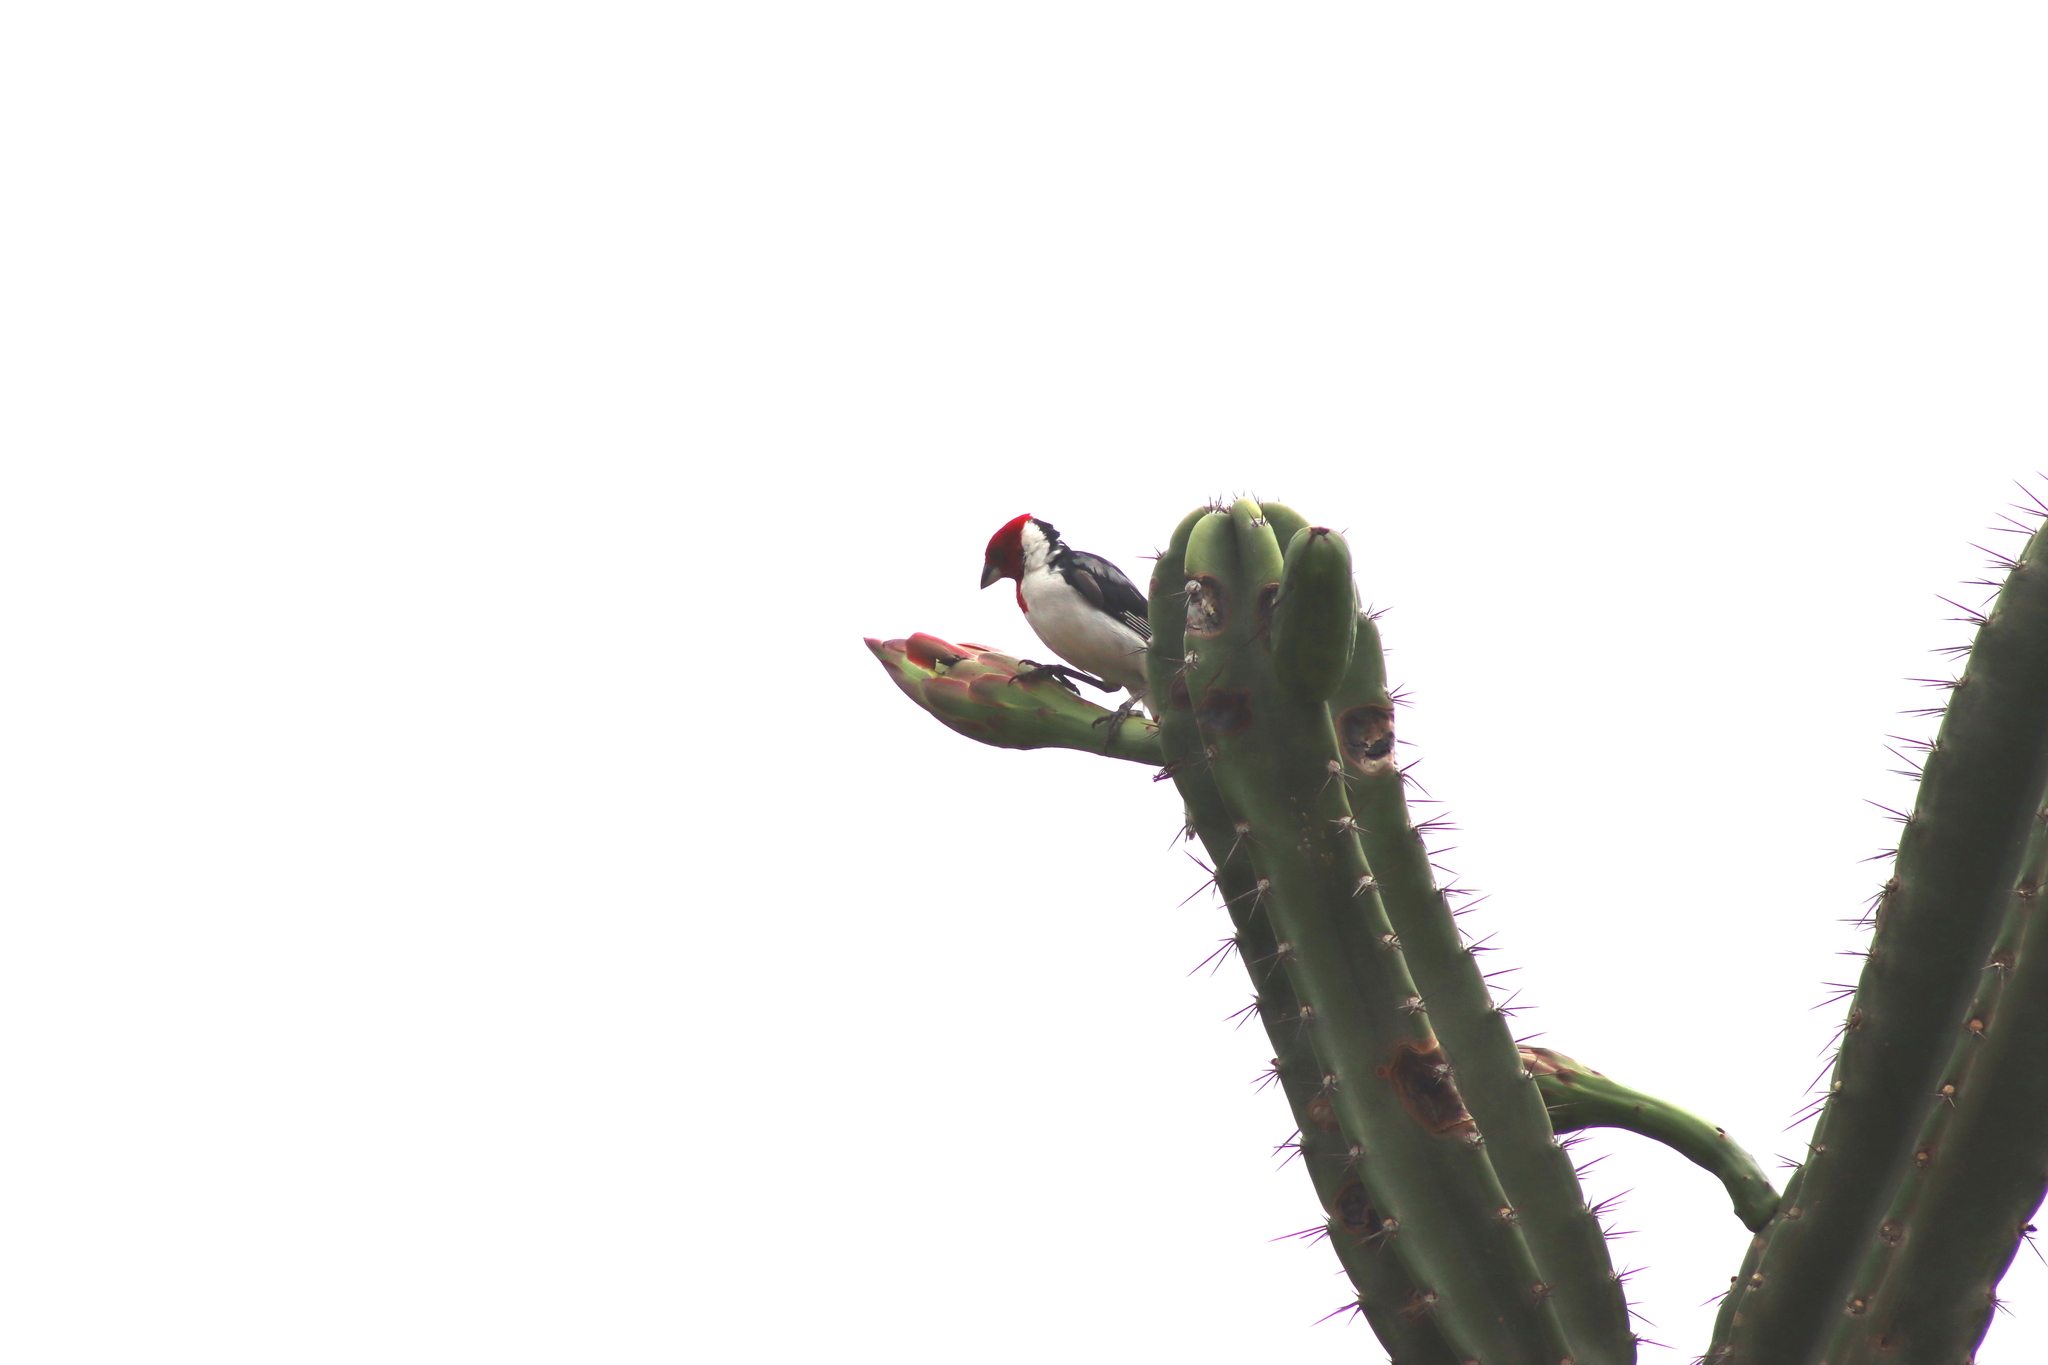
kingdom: Animalia
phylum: Chordata
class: Aves
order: Passeriformes
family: Thraupidae
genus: Paroaria
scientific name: Paroaria dominicana
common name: Red-cowled cardinal
